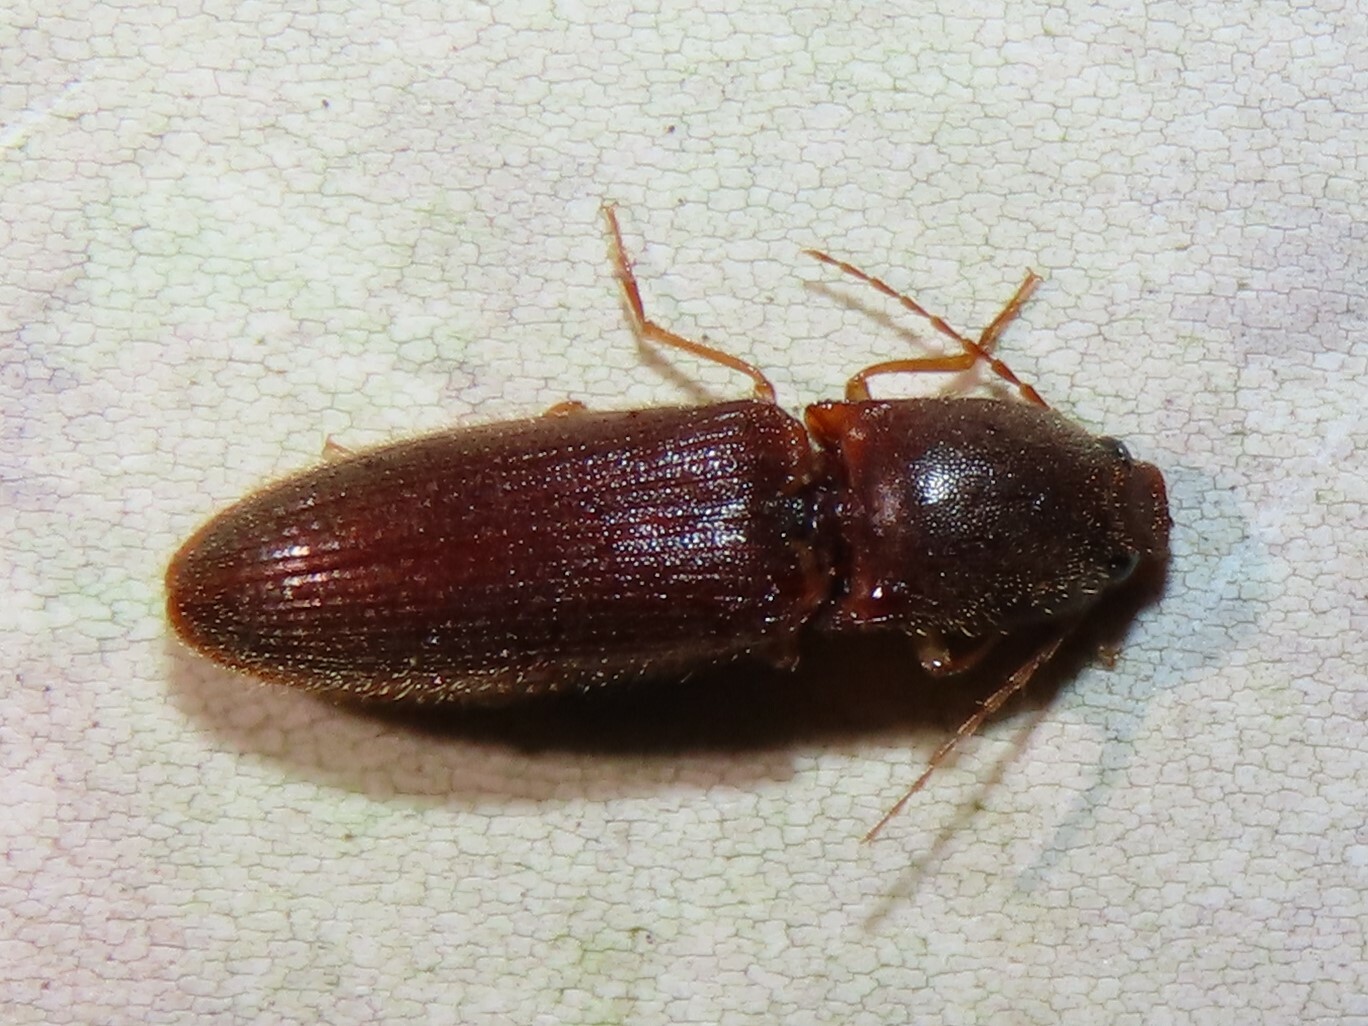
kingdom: Animalia
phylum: Arthropoda
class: Insecta
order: Coleoptera
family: Elateridae
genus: Athous
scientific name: Athous cucullatus
